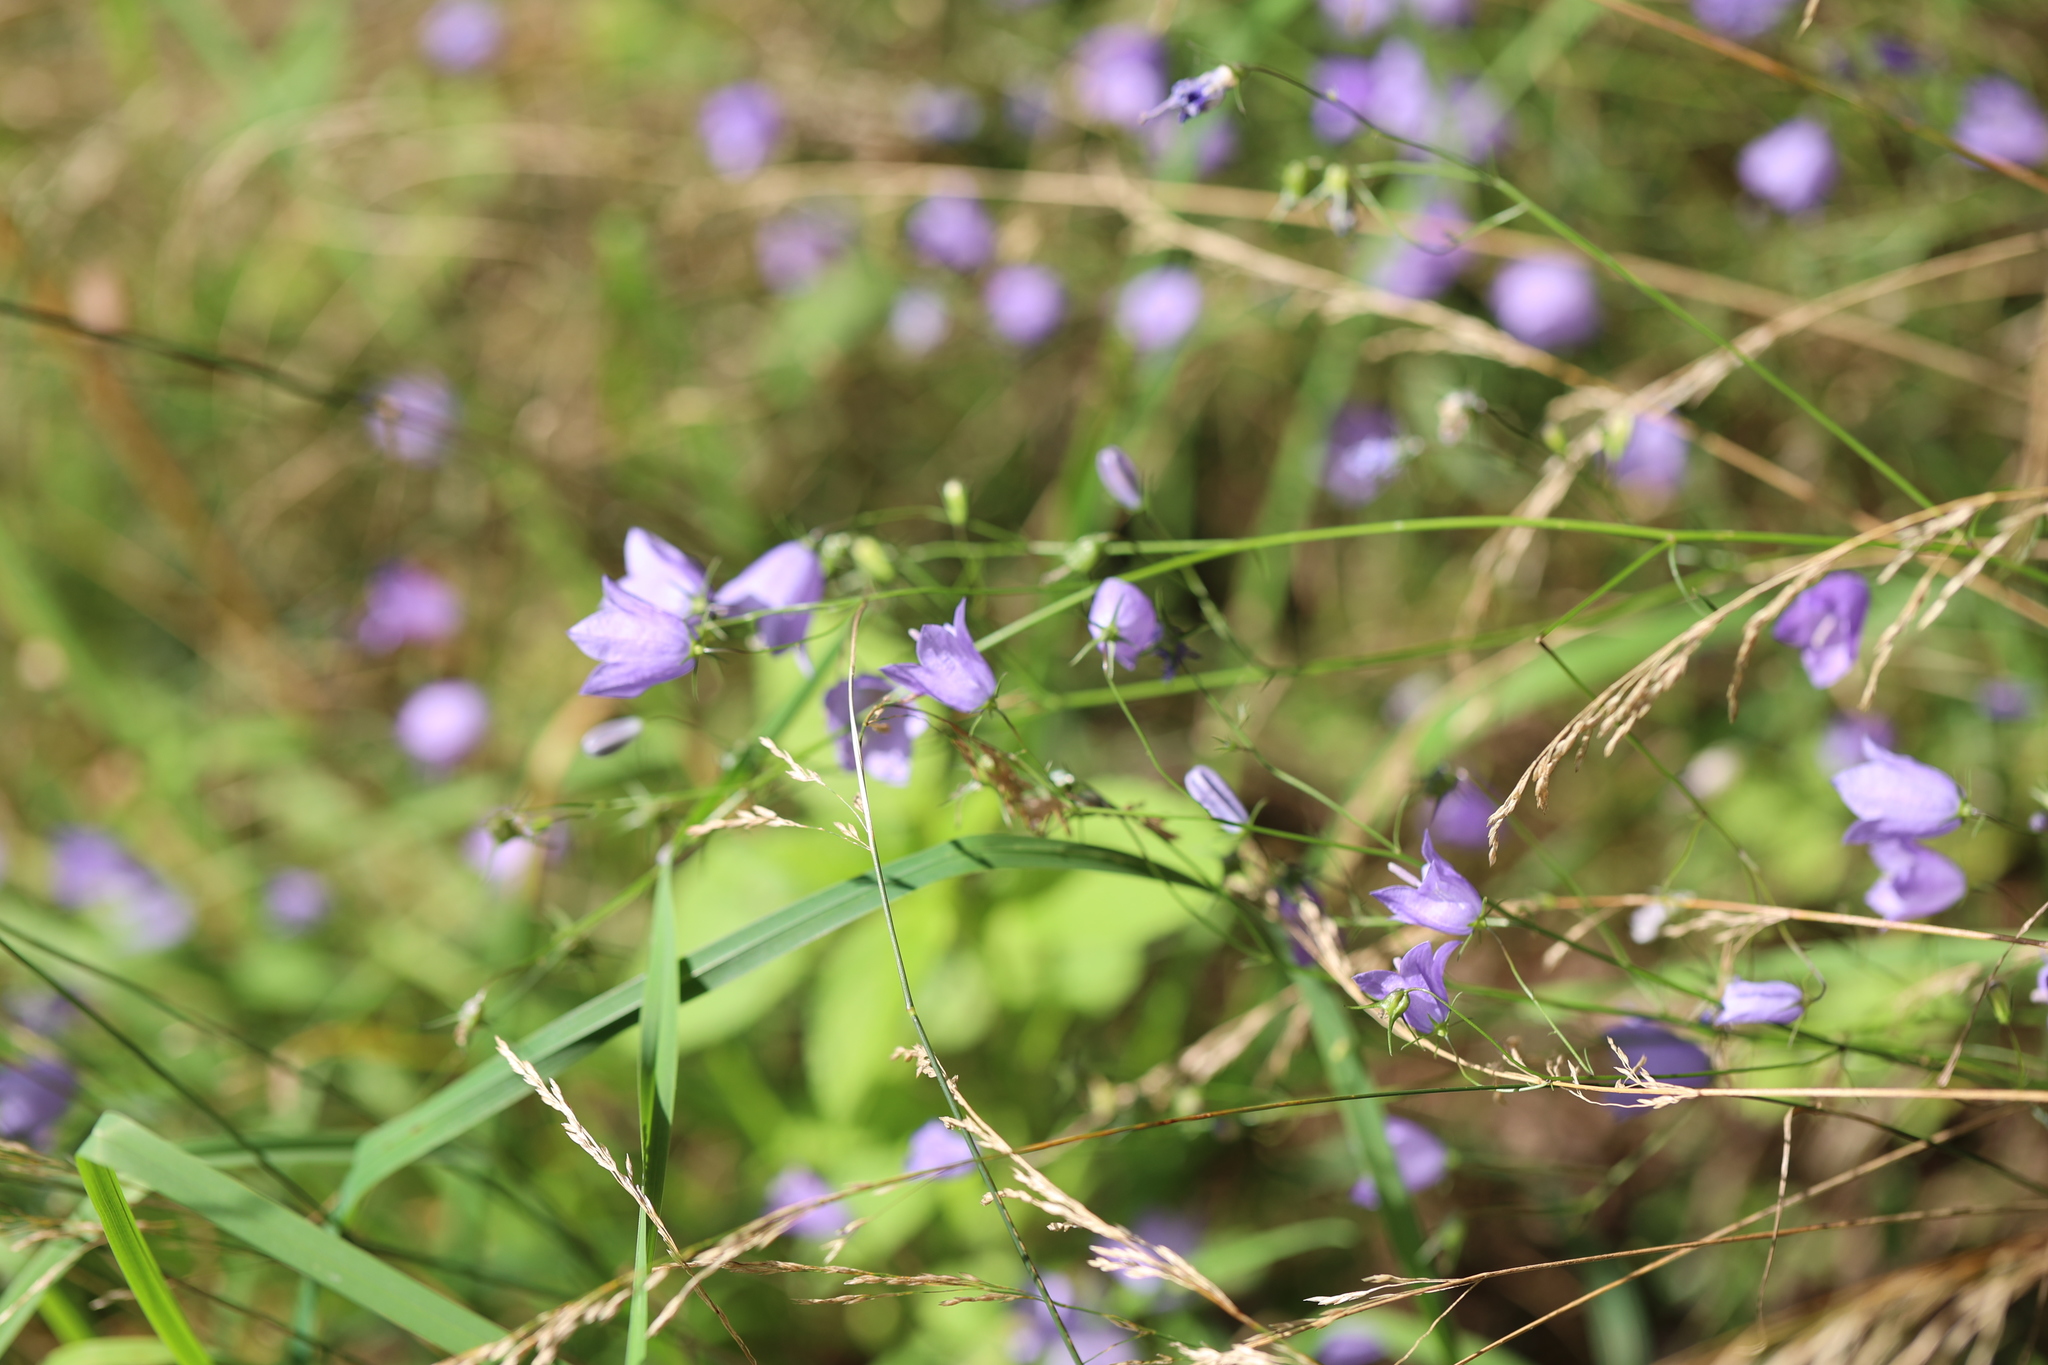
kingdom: Plantae
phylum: Tracheophyta
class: Magnoliopsida
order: Asterales
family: Campanulaceae
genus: Campanula
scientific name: Campanula rotundifolia
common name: Harebell
